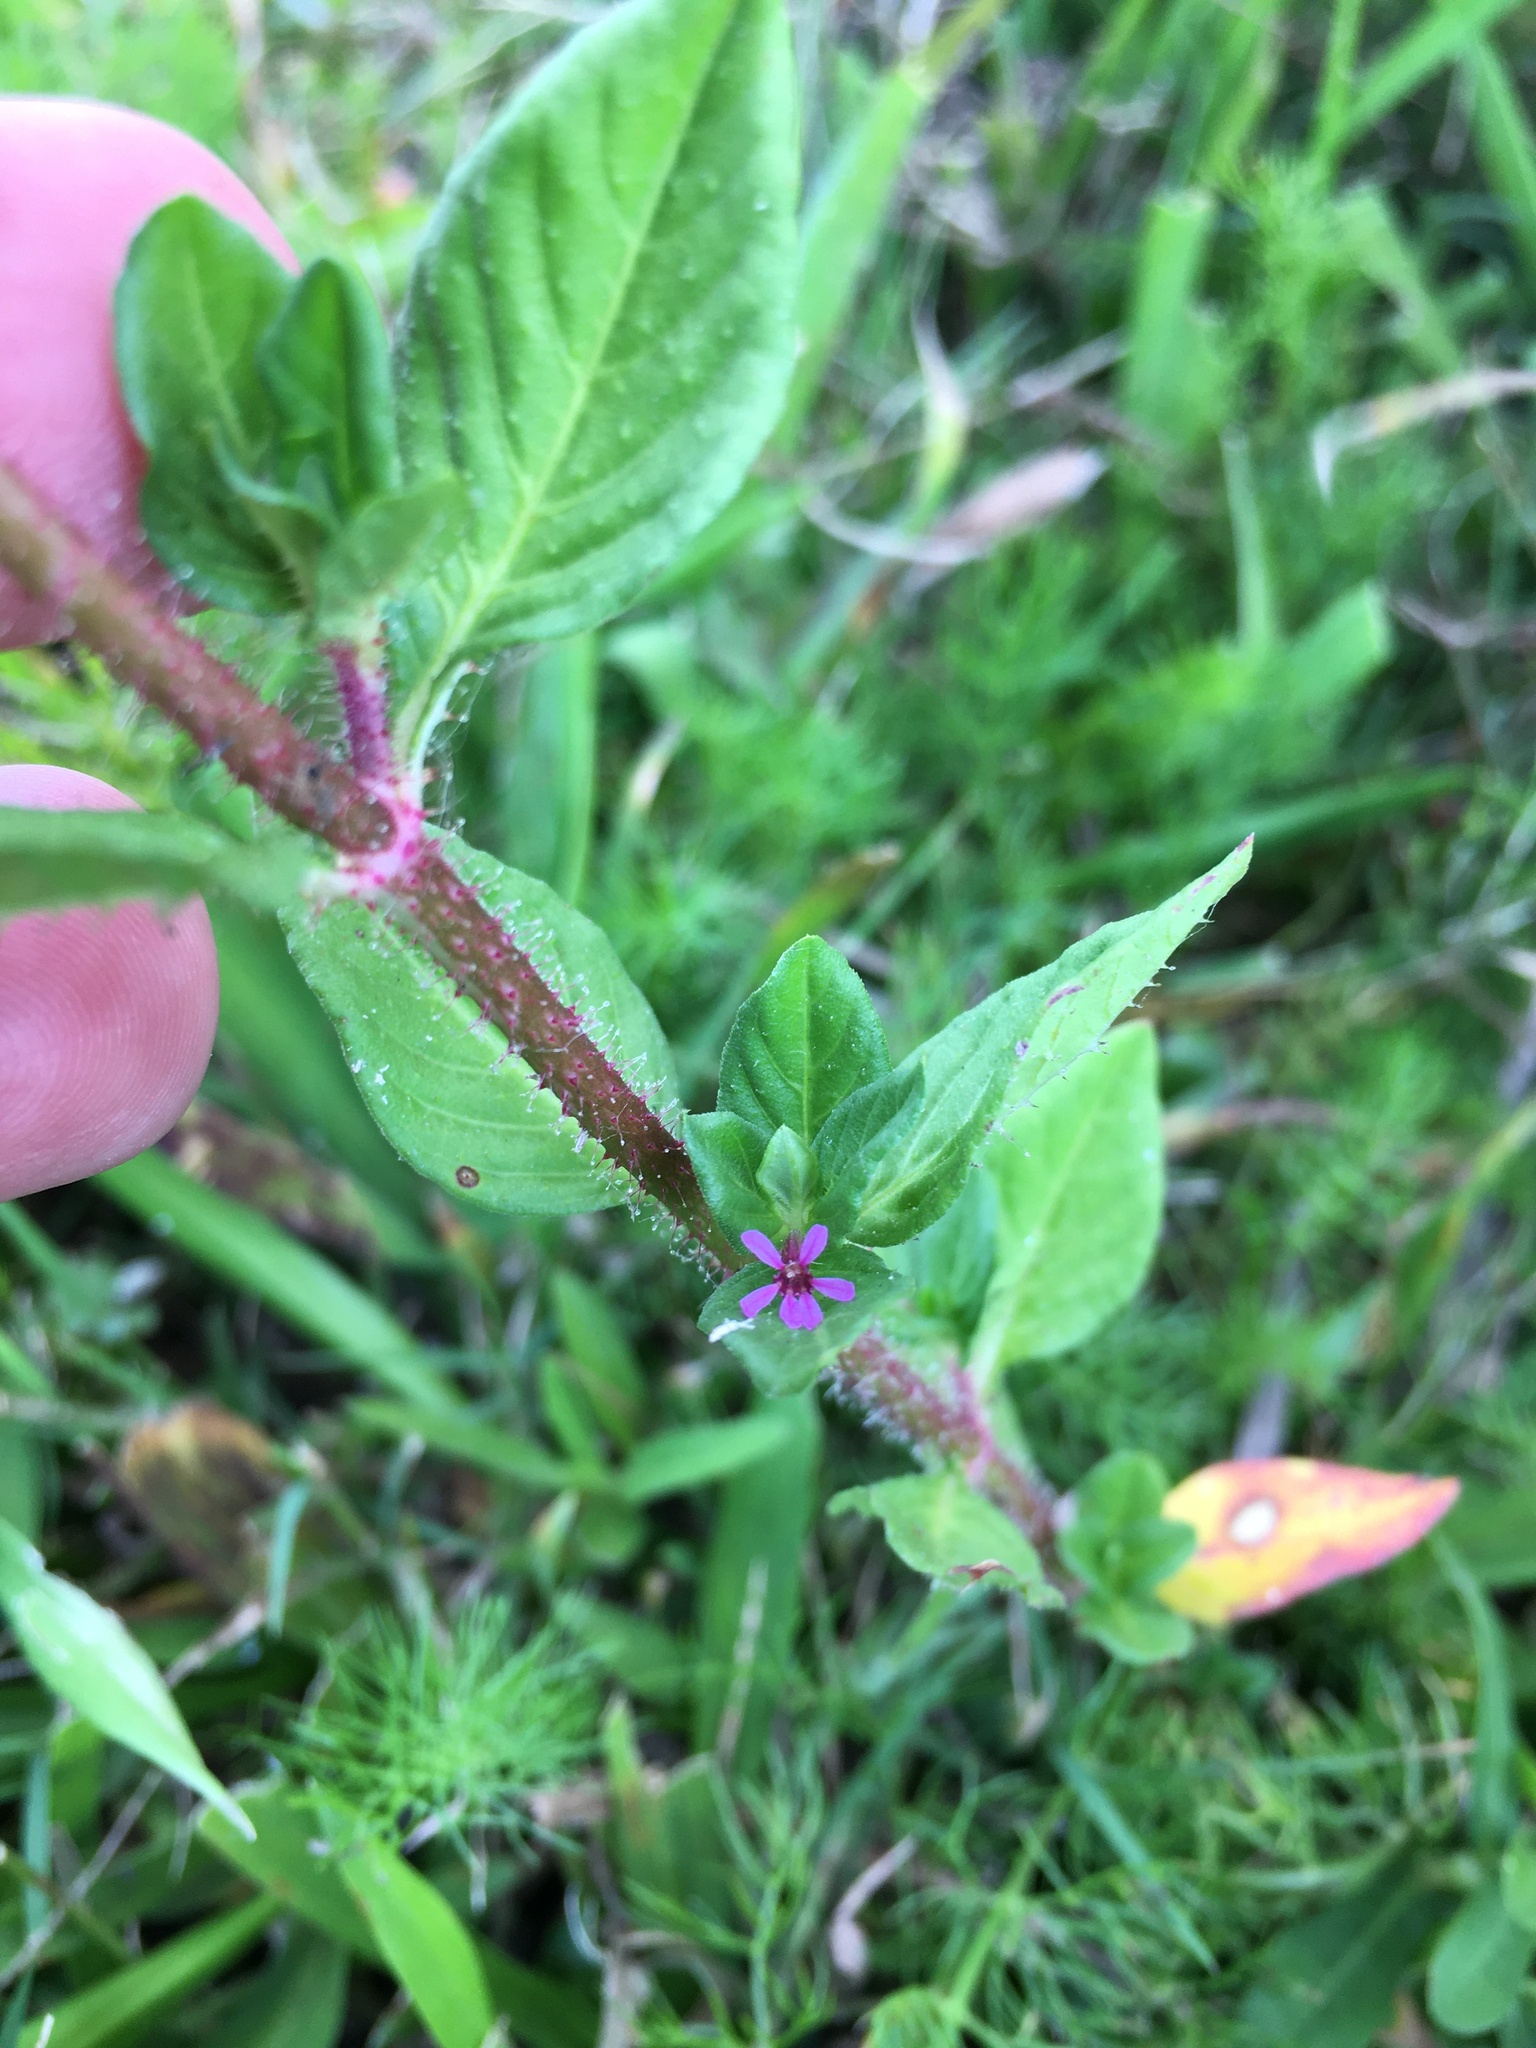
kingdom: Plantae
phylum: Tracheophyta
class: Magnoliopsida
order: Myrtales
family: Lythraceae
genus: Cuphea
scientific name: Cuphea carthagenensis
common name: Colombian waxweed
